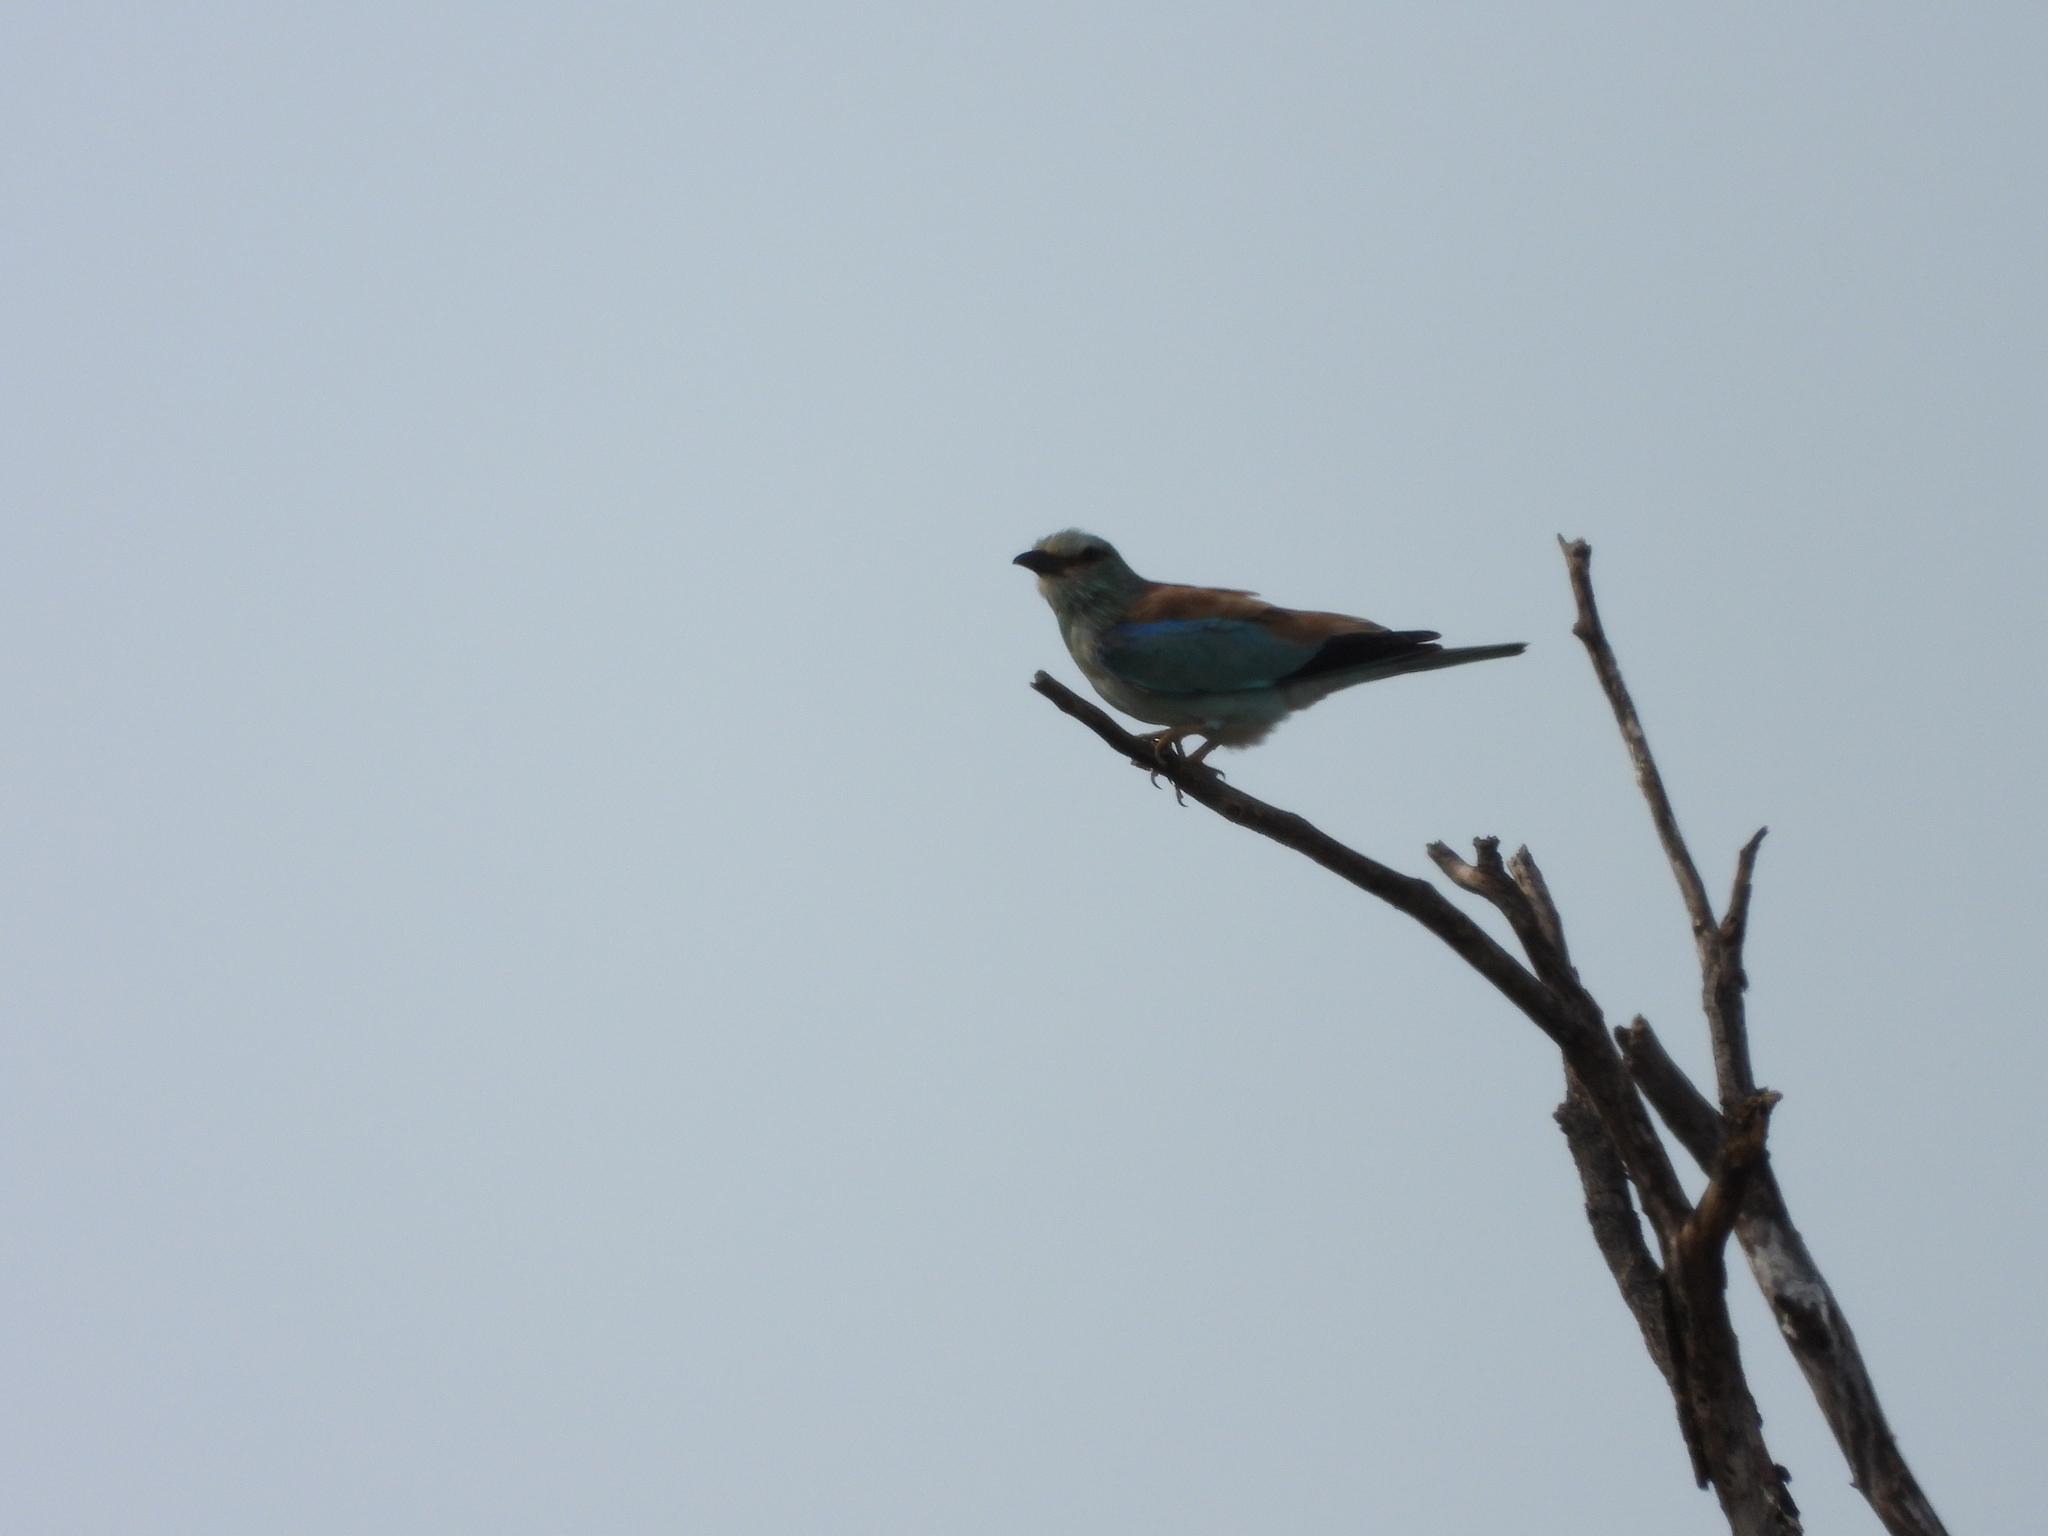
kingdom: Animalia
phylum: Chordata
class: Aves
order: Coraciiformes
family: Coraciidae
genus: Coracias
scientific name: Coracias garrulus
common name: European roller
